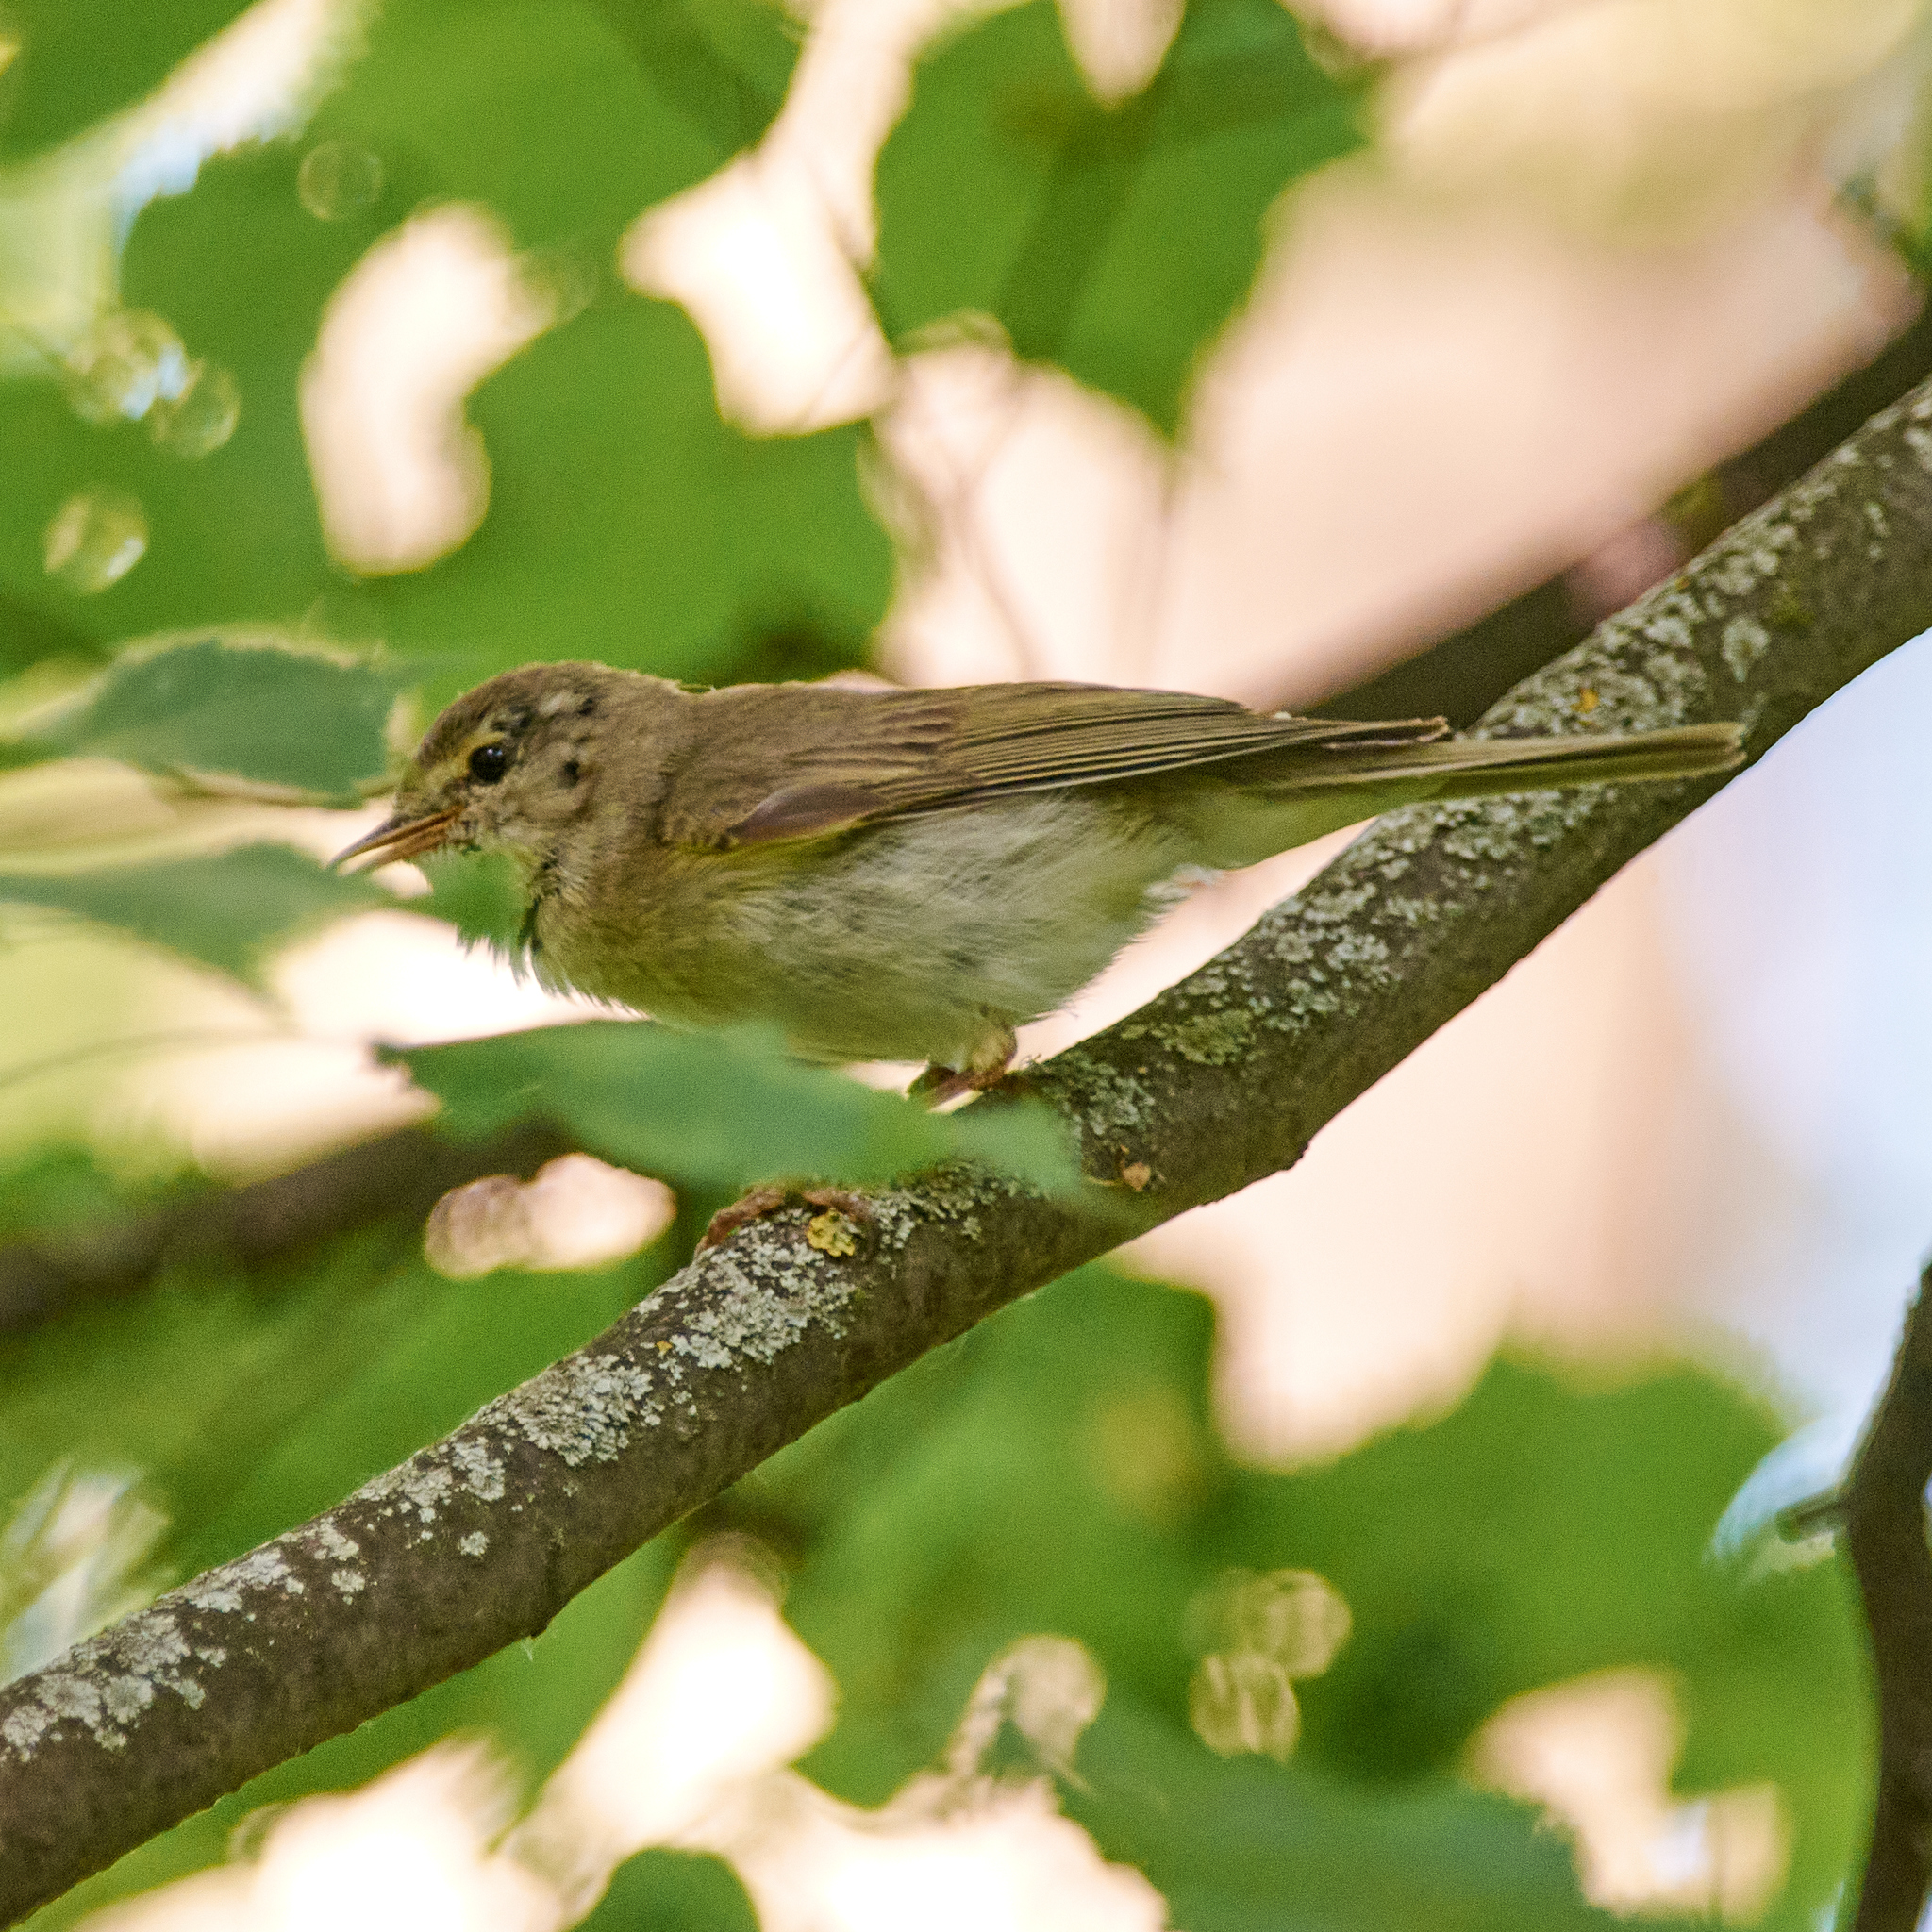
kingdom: Animalia
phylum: Chordata
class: Aves
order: Passeriformes
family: Phylloscopidae
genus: Phylloscopus
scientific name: Phylloscopus trochilus
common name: Willow warbler
